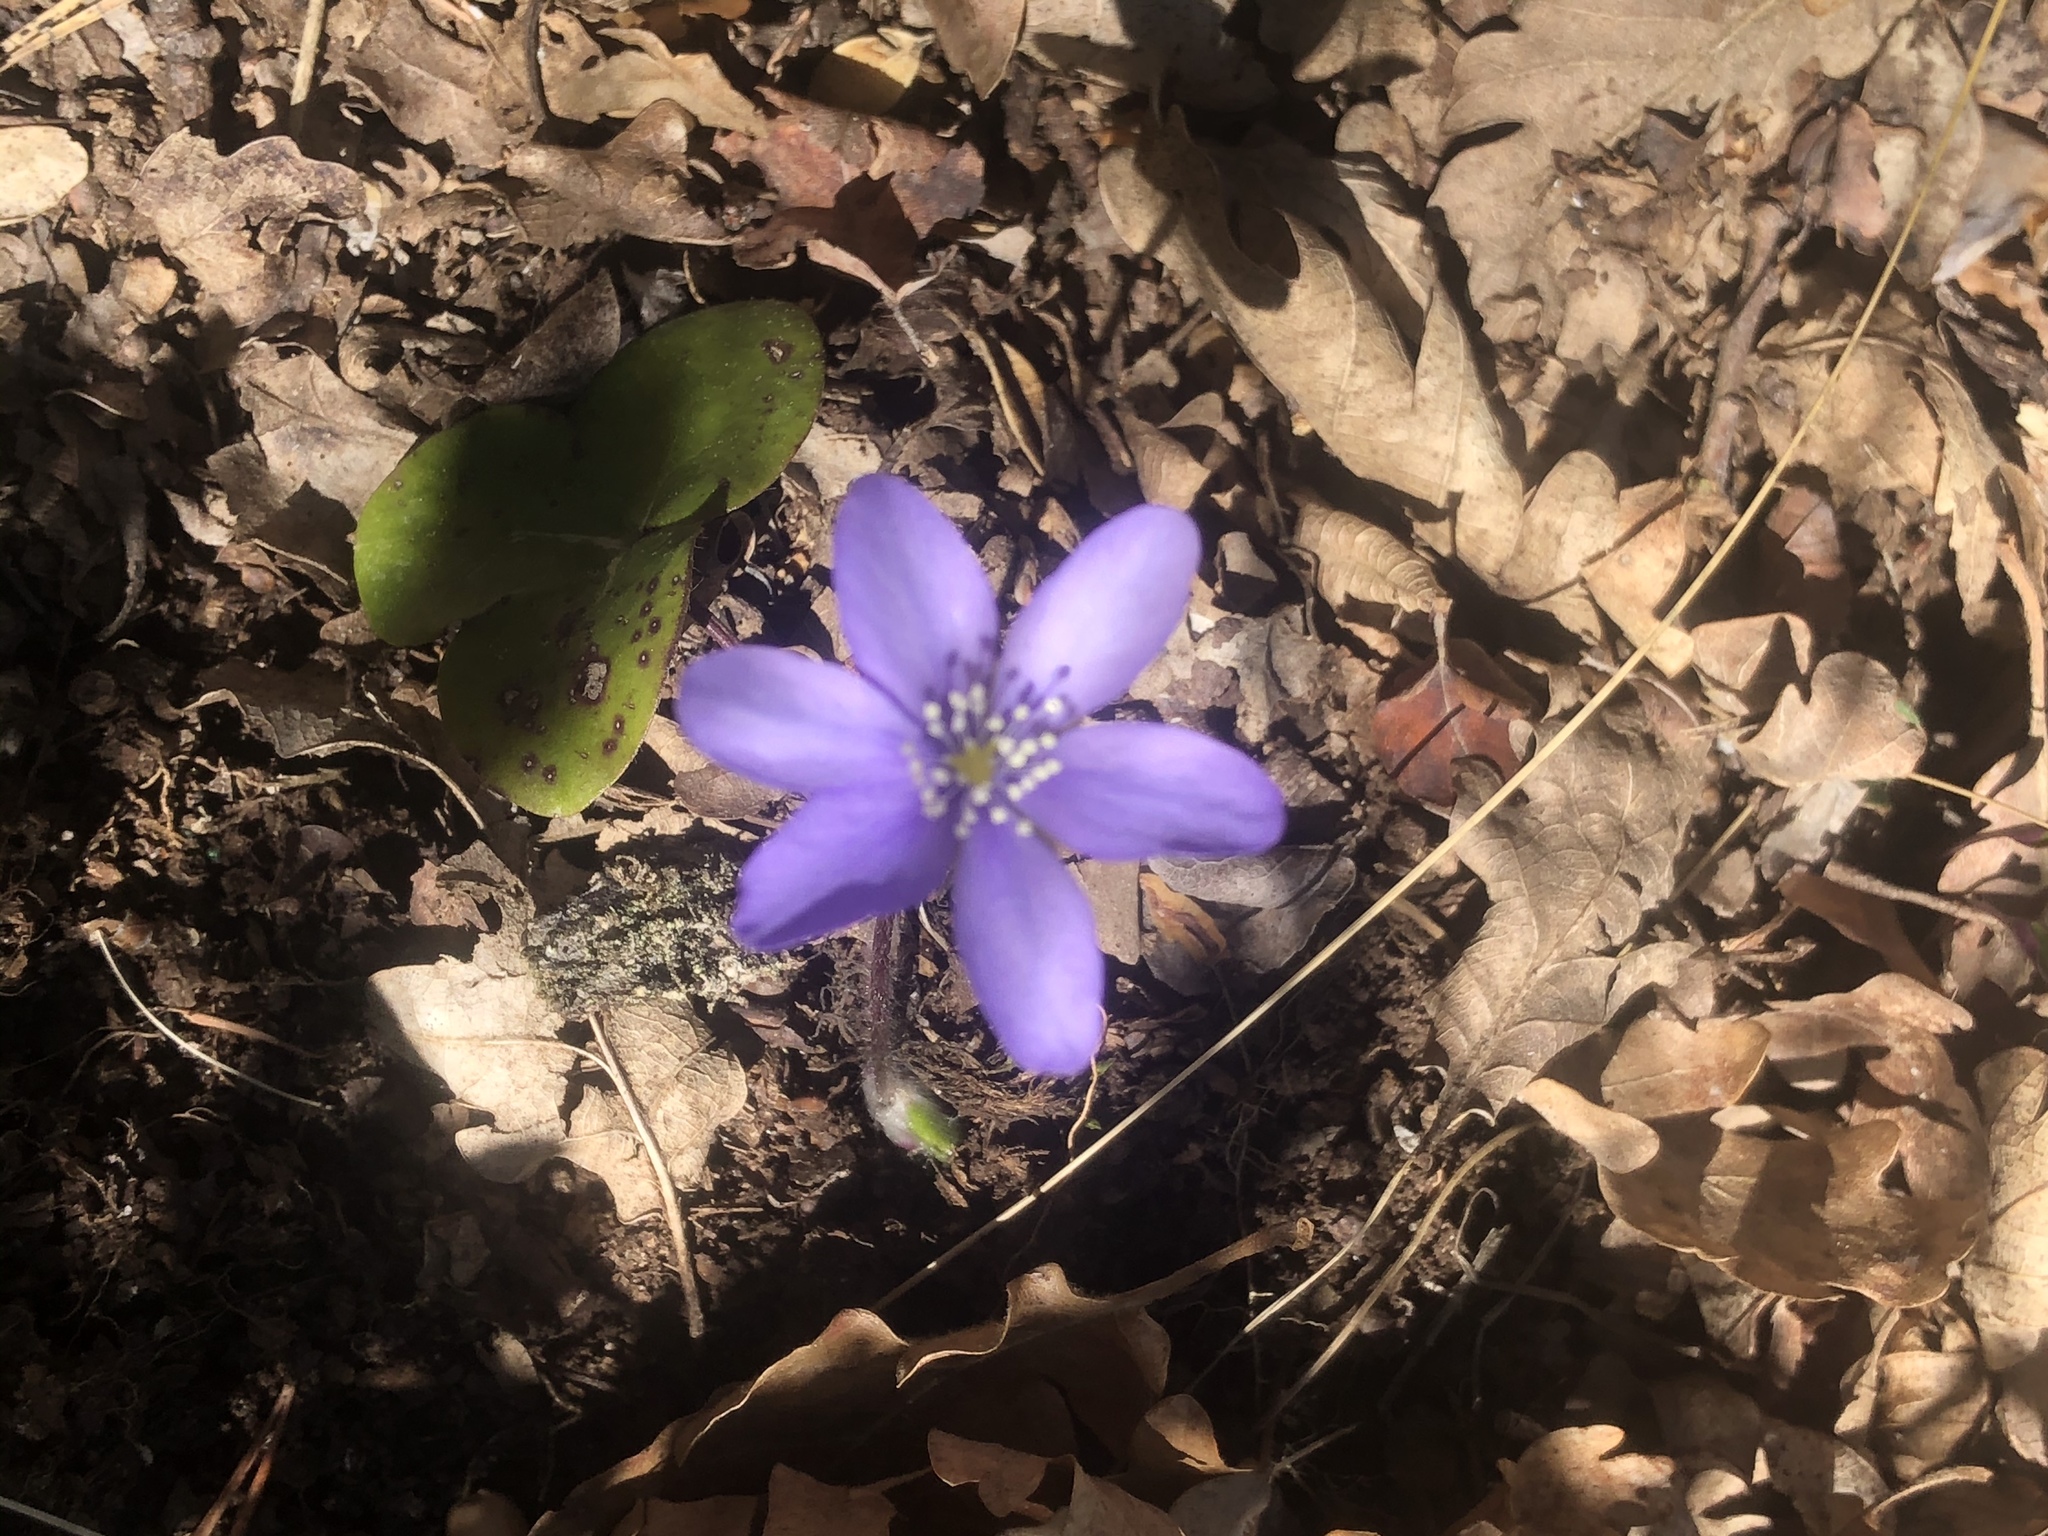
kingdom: Plantae
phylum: Tracheophyta
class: Magnoliopsida
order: Ranunculales
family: Ranunculaceae
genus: Hepatica
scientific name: Hepatica nobilis
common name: Liverleaf
